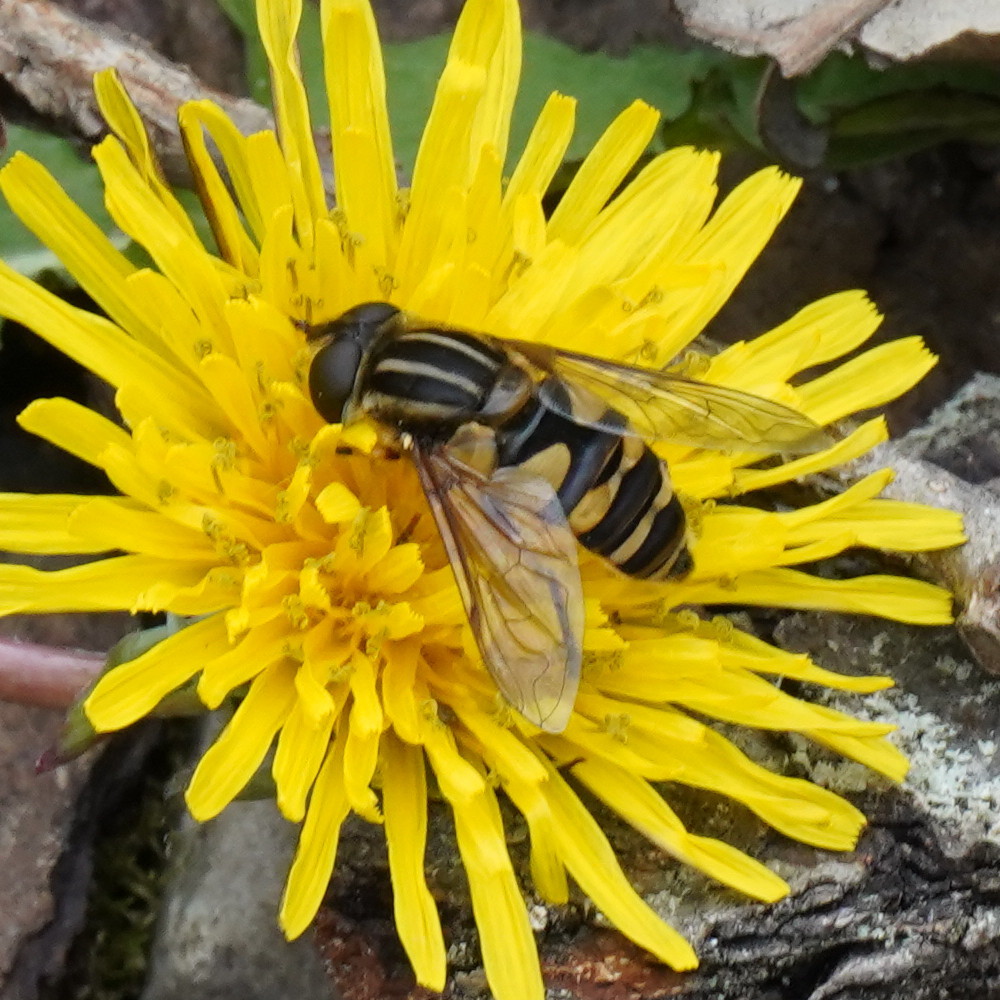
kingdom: Animalia
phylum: Arthropoda
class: Insecta
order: Diptera
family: Syrphidae
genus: Helophilus
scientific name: Helophilus fasciatus
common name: Narrow-headed marsh fly
